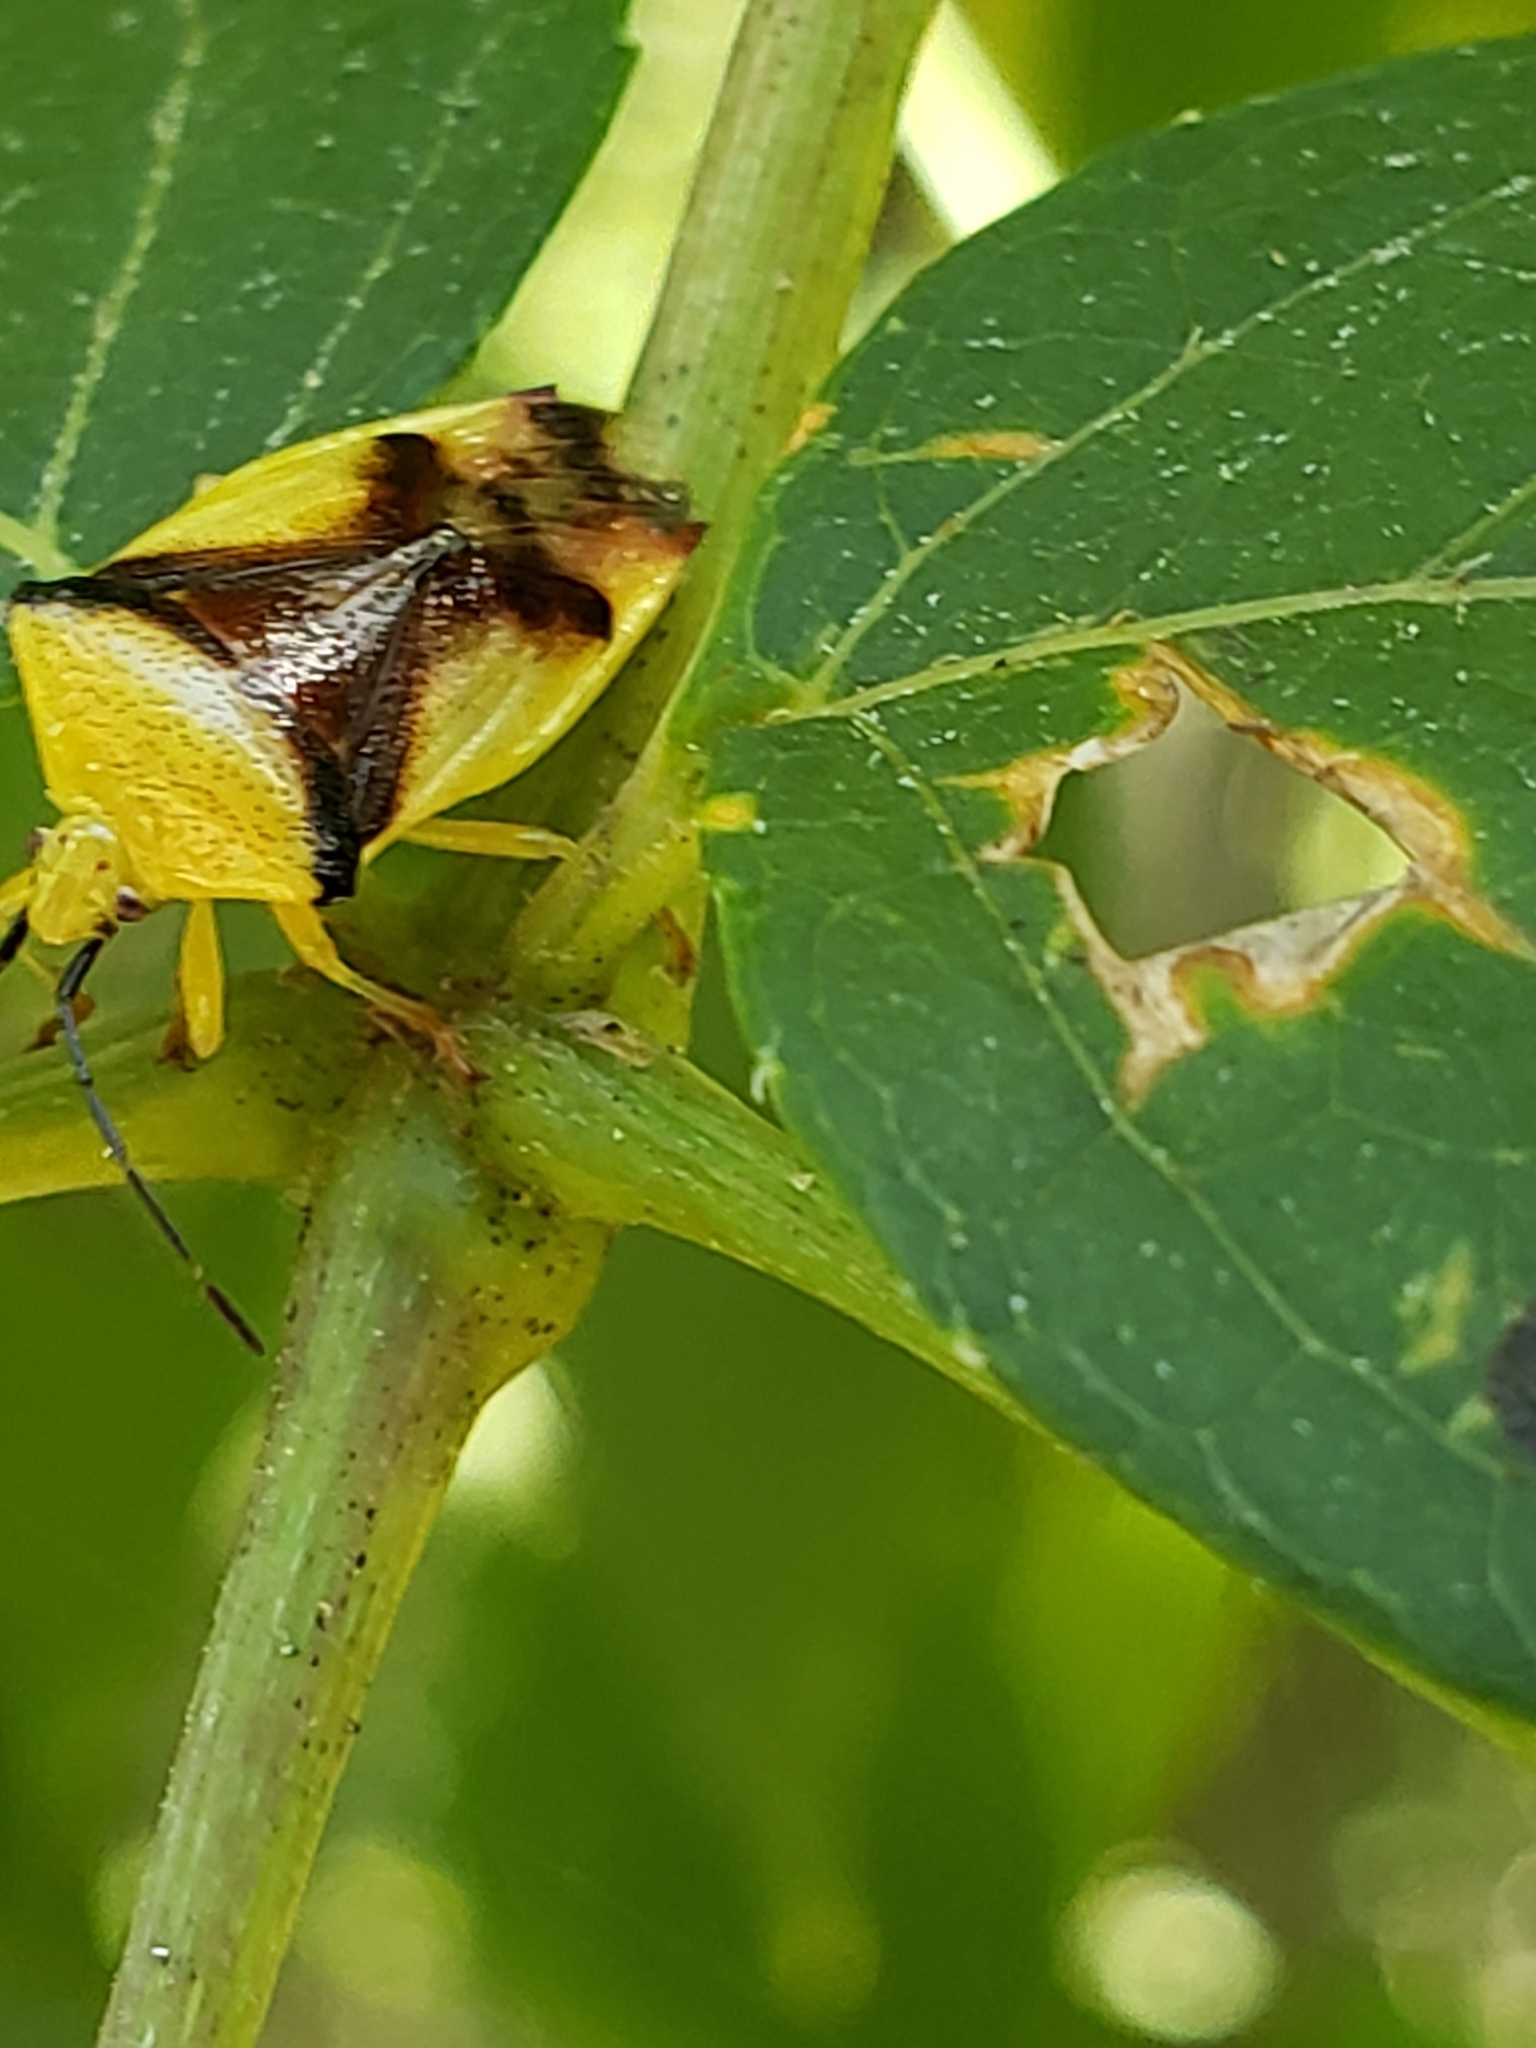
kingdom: Animalia
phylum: Arthropoda
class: Insecta
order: Hemiptera
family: Acanthosomatidae
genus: Elasmostethus
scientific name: Elasmostethus atricornis
